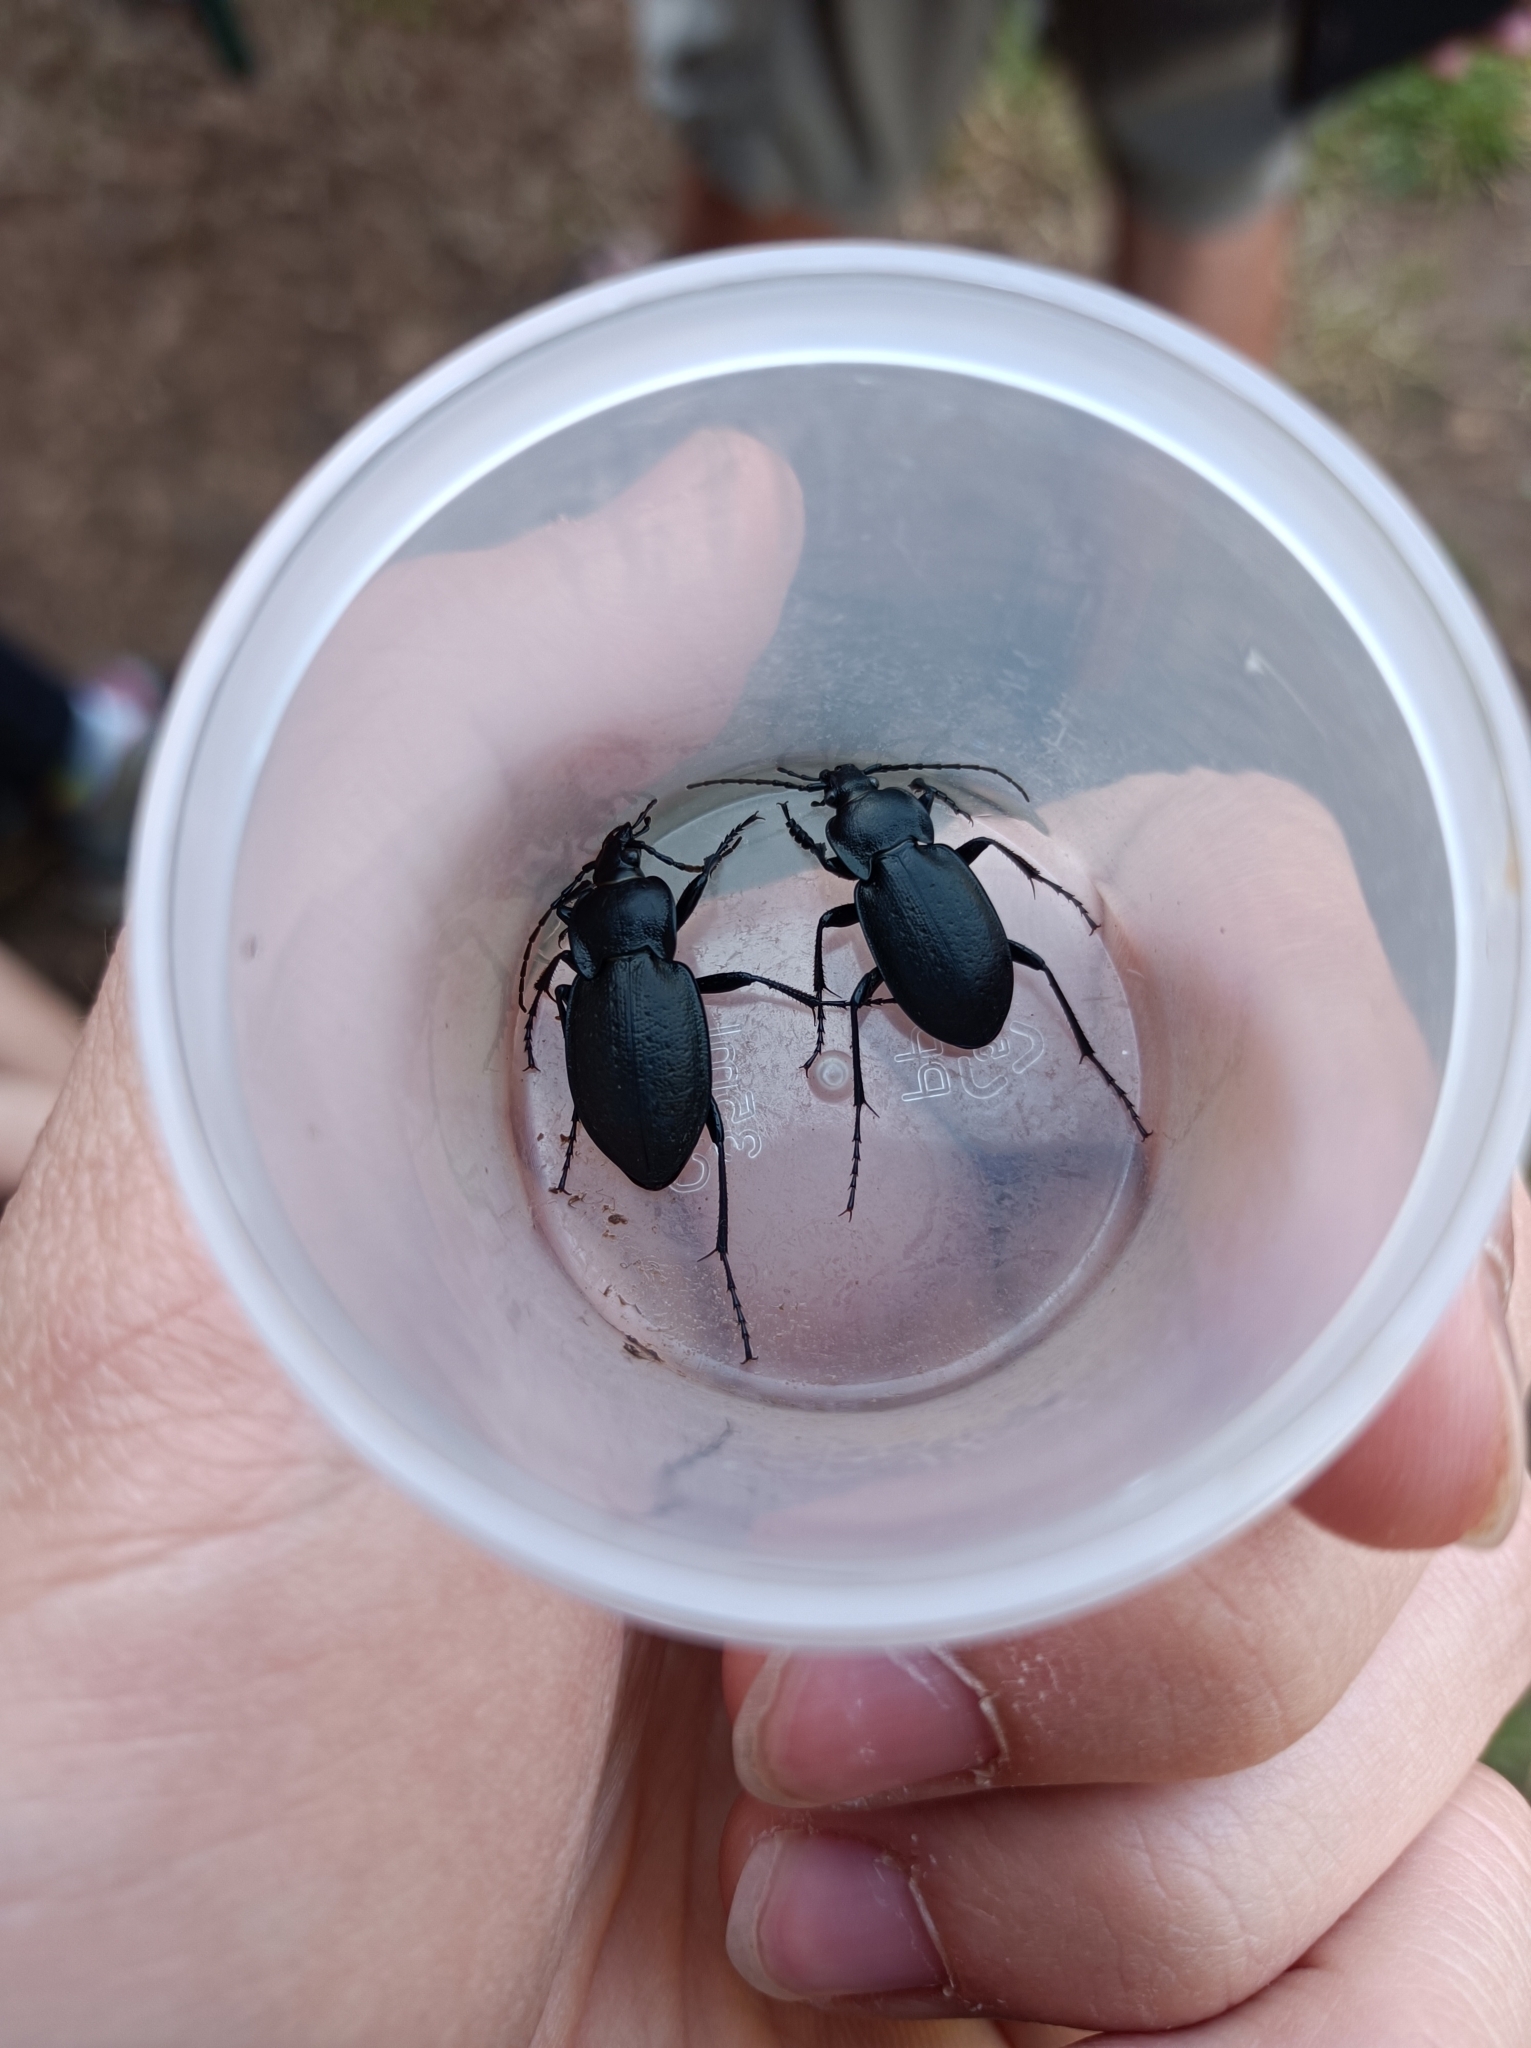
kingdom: Animalia
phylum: Arthropoda
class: Insecta
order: Coleoptera
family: Carabidae
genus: Carabus
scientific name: Carabus scabriusculus
